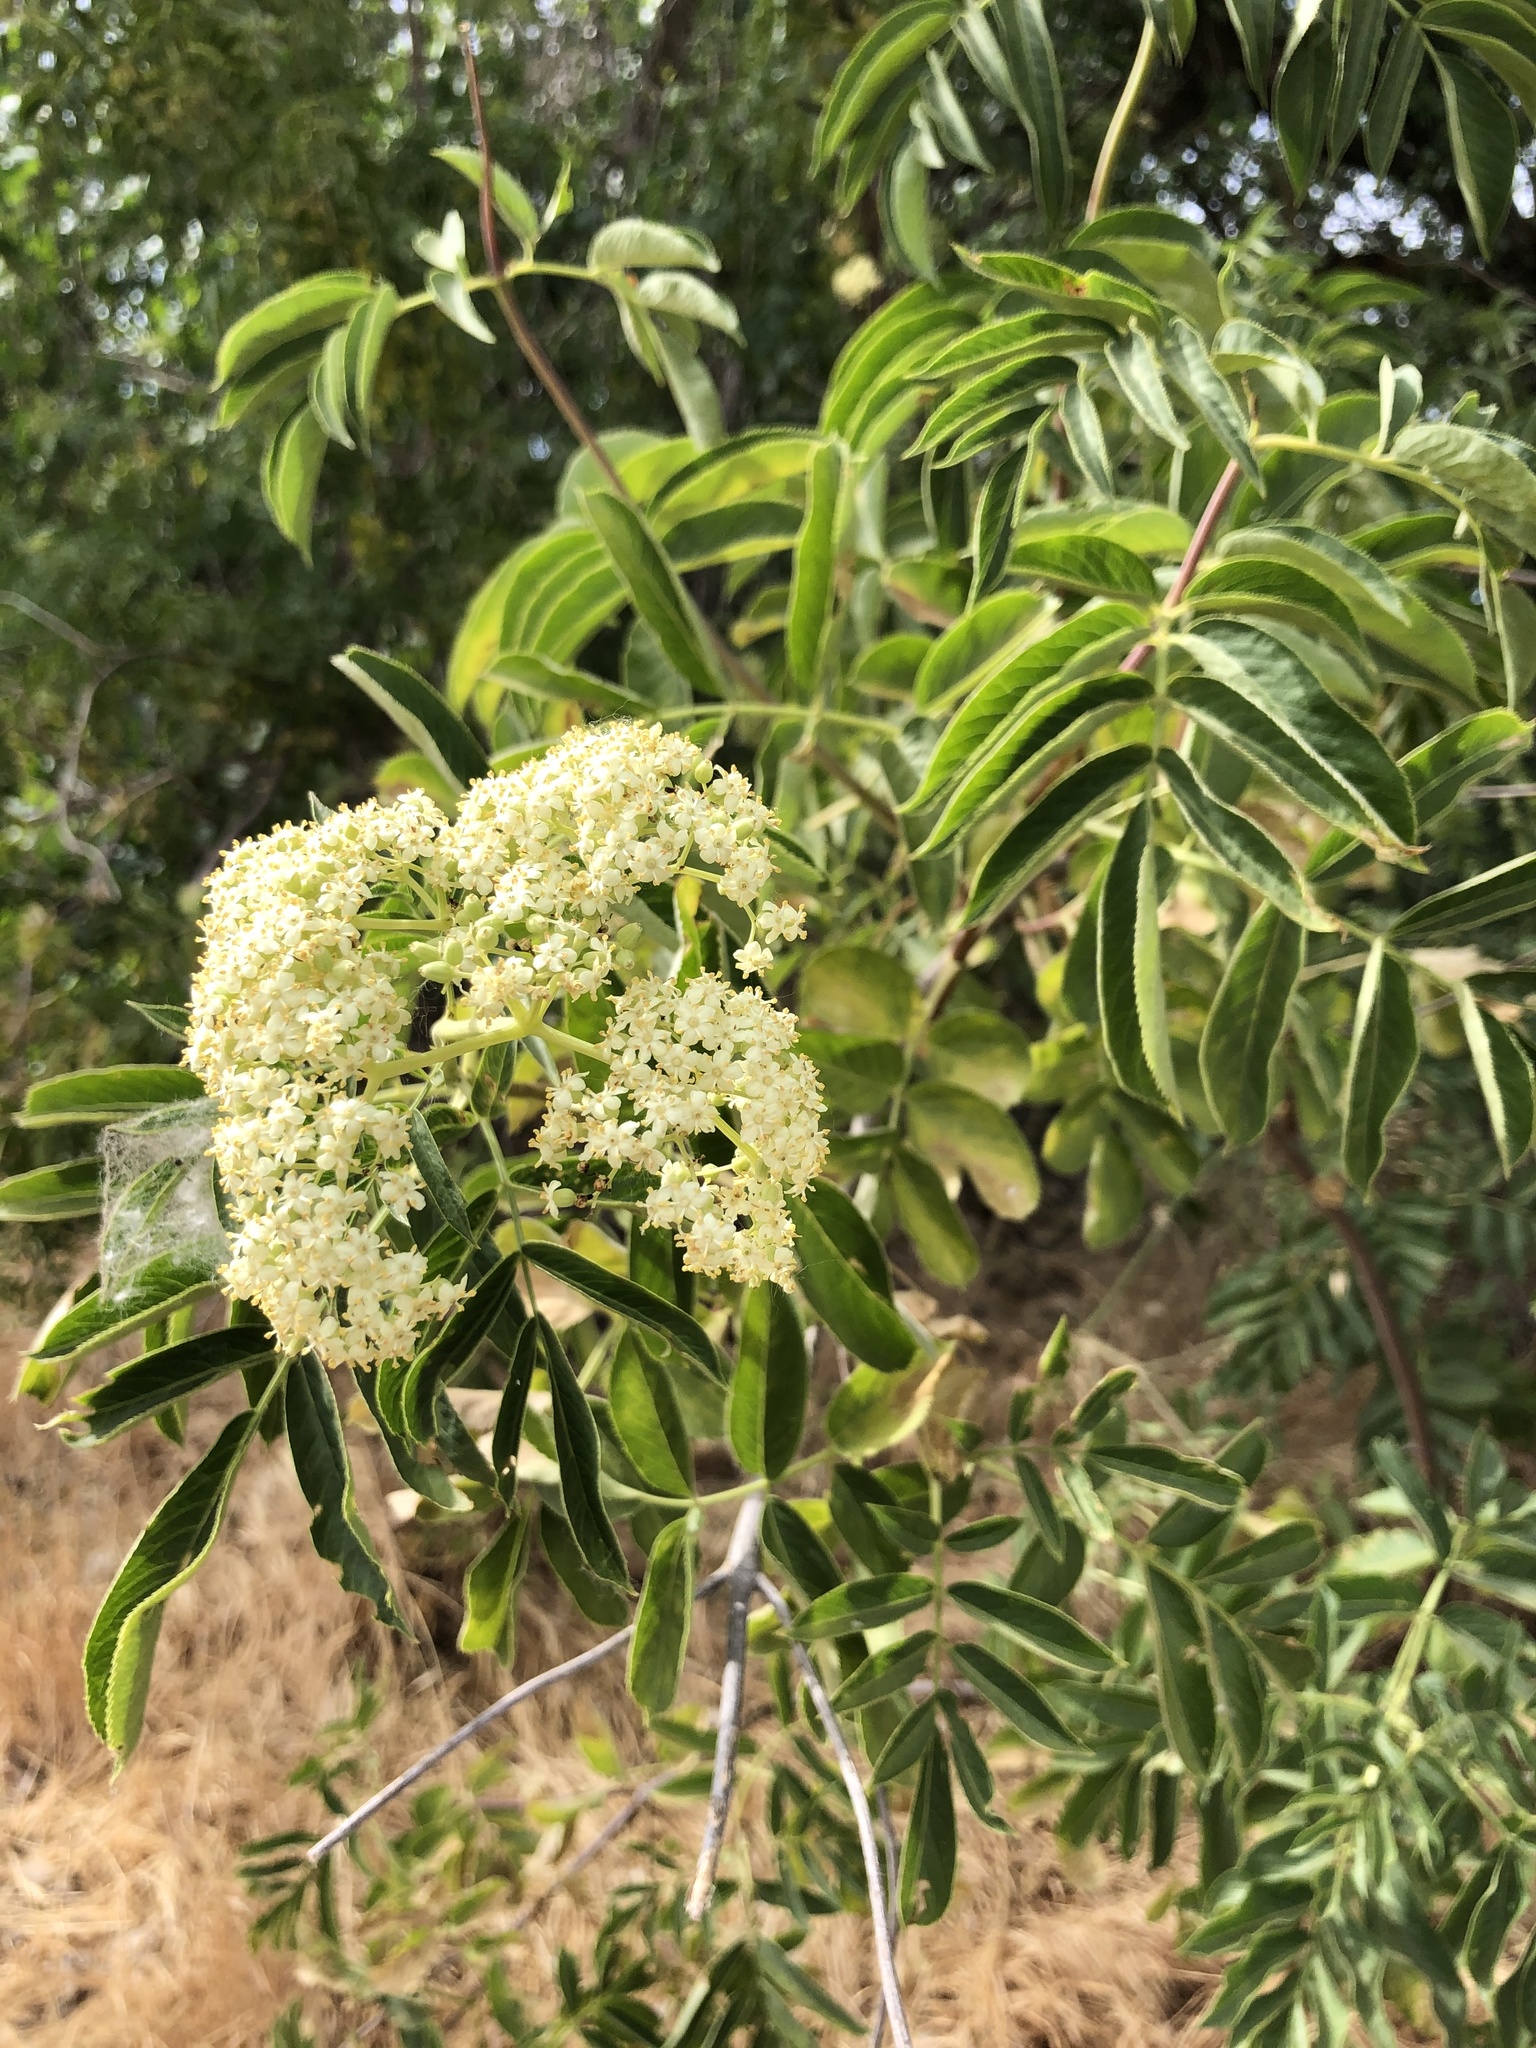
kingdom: Plantae
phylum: Tracheophyta
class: Magnoliopsida
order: Dipsacales
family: Viburnaceae
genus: Sambucus
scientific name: Sambucus cerulea
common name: Blue elder
